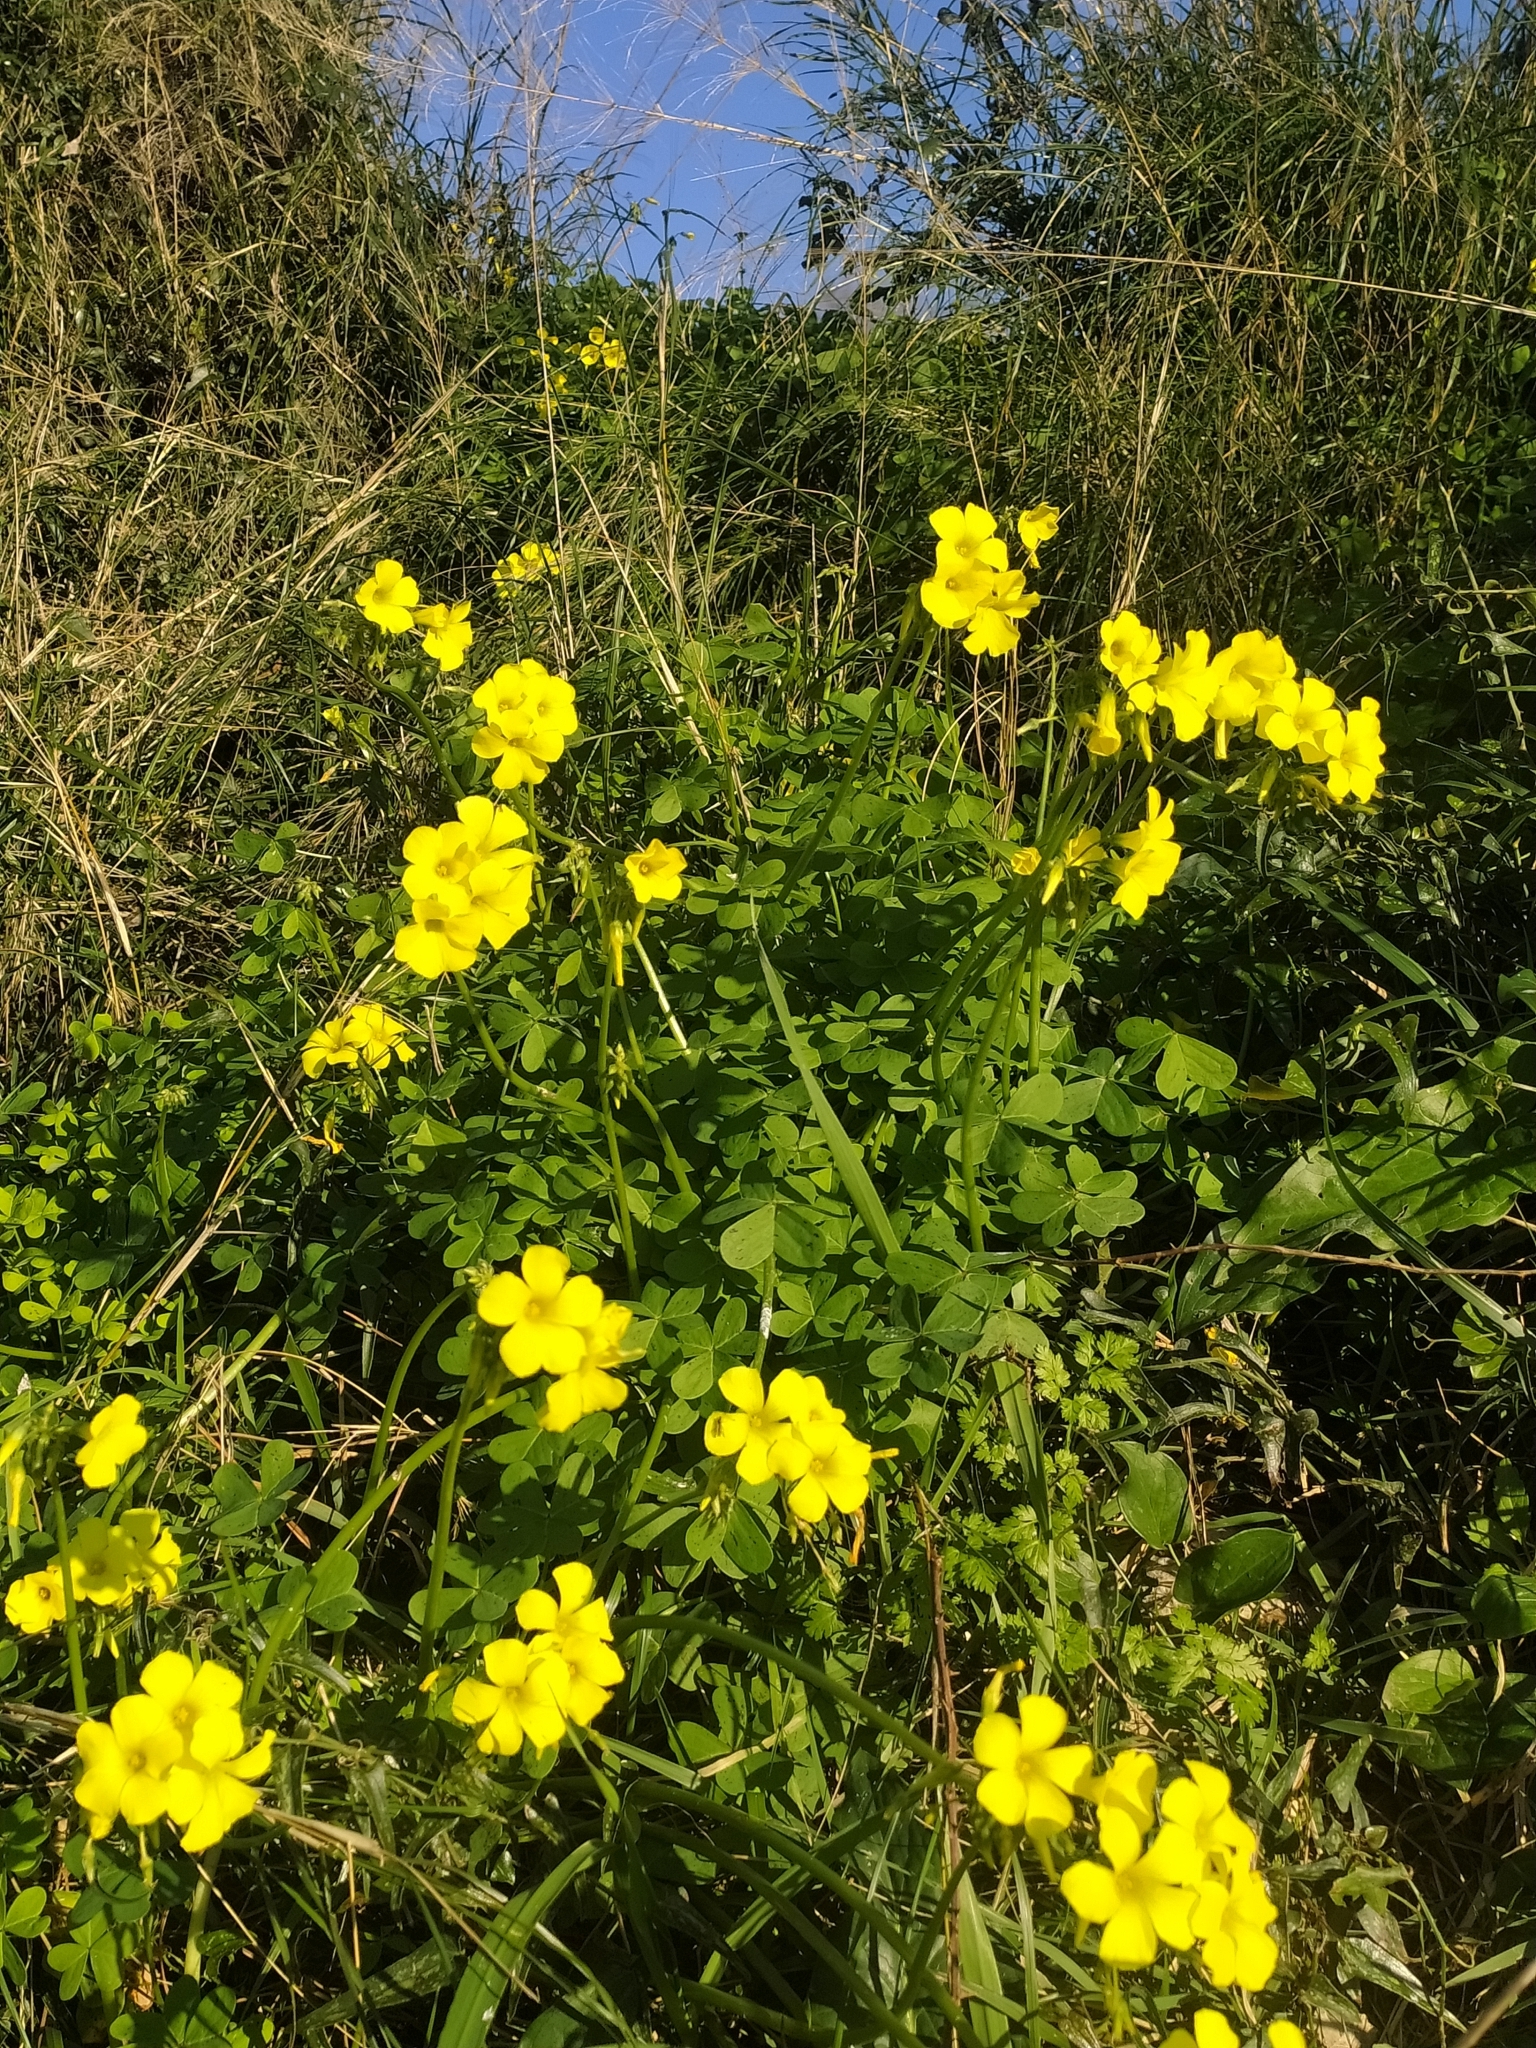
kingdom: Plantae
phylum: Tracheophyta
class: Magnoliopsida
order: Oxalidales
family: Oxalidaceae
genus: Oxalis
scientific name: Oxalis pes-caprae
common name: Bermuda-buttercup
